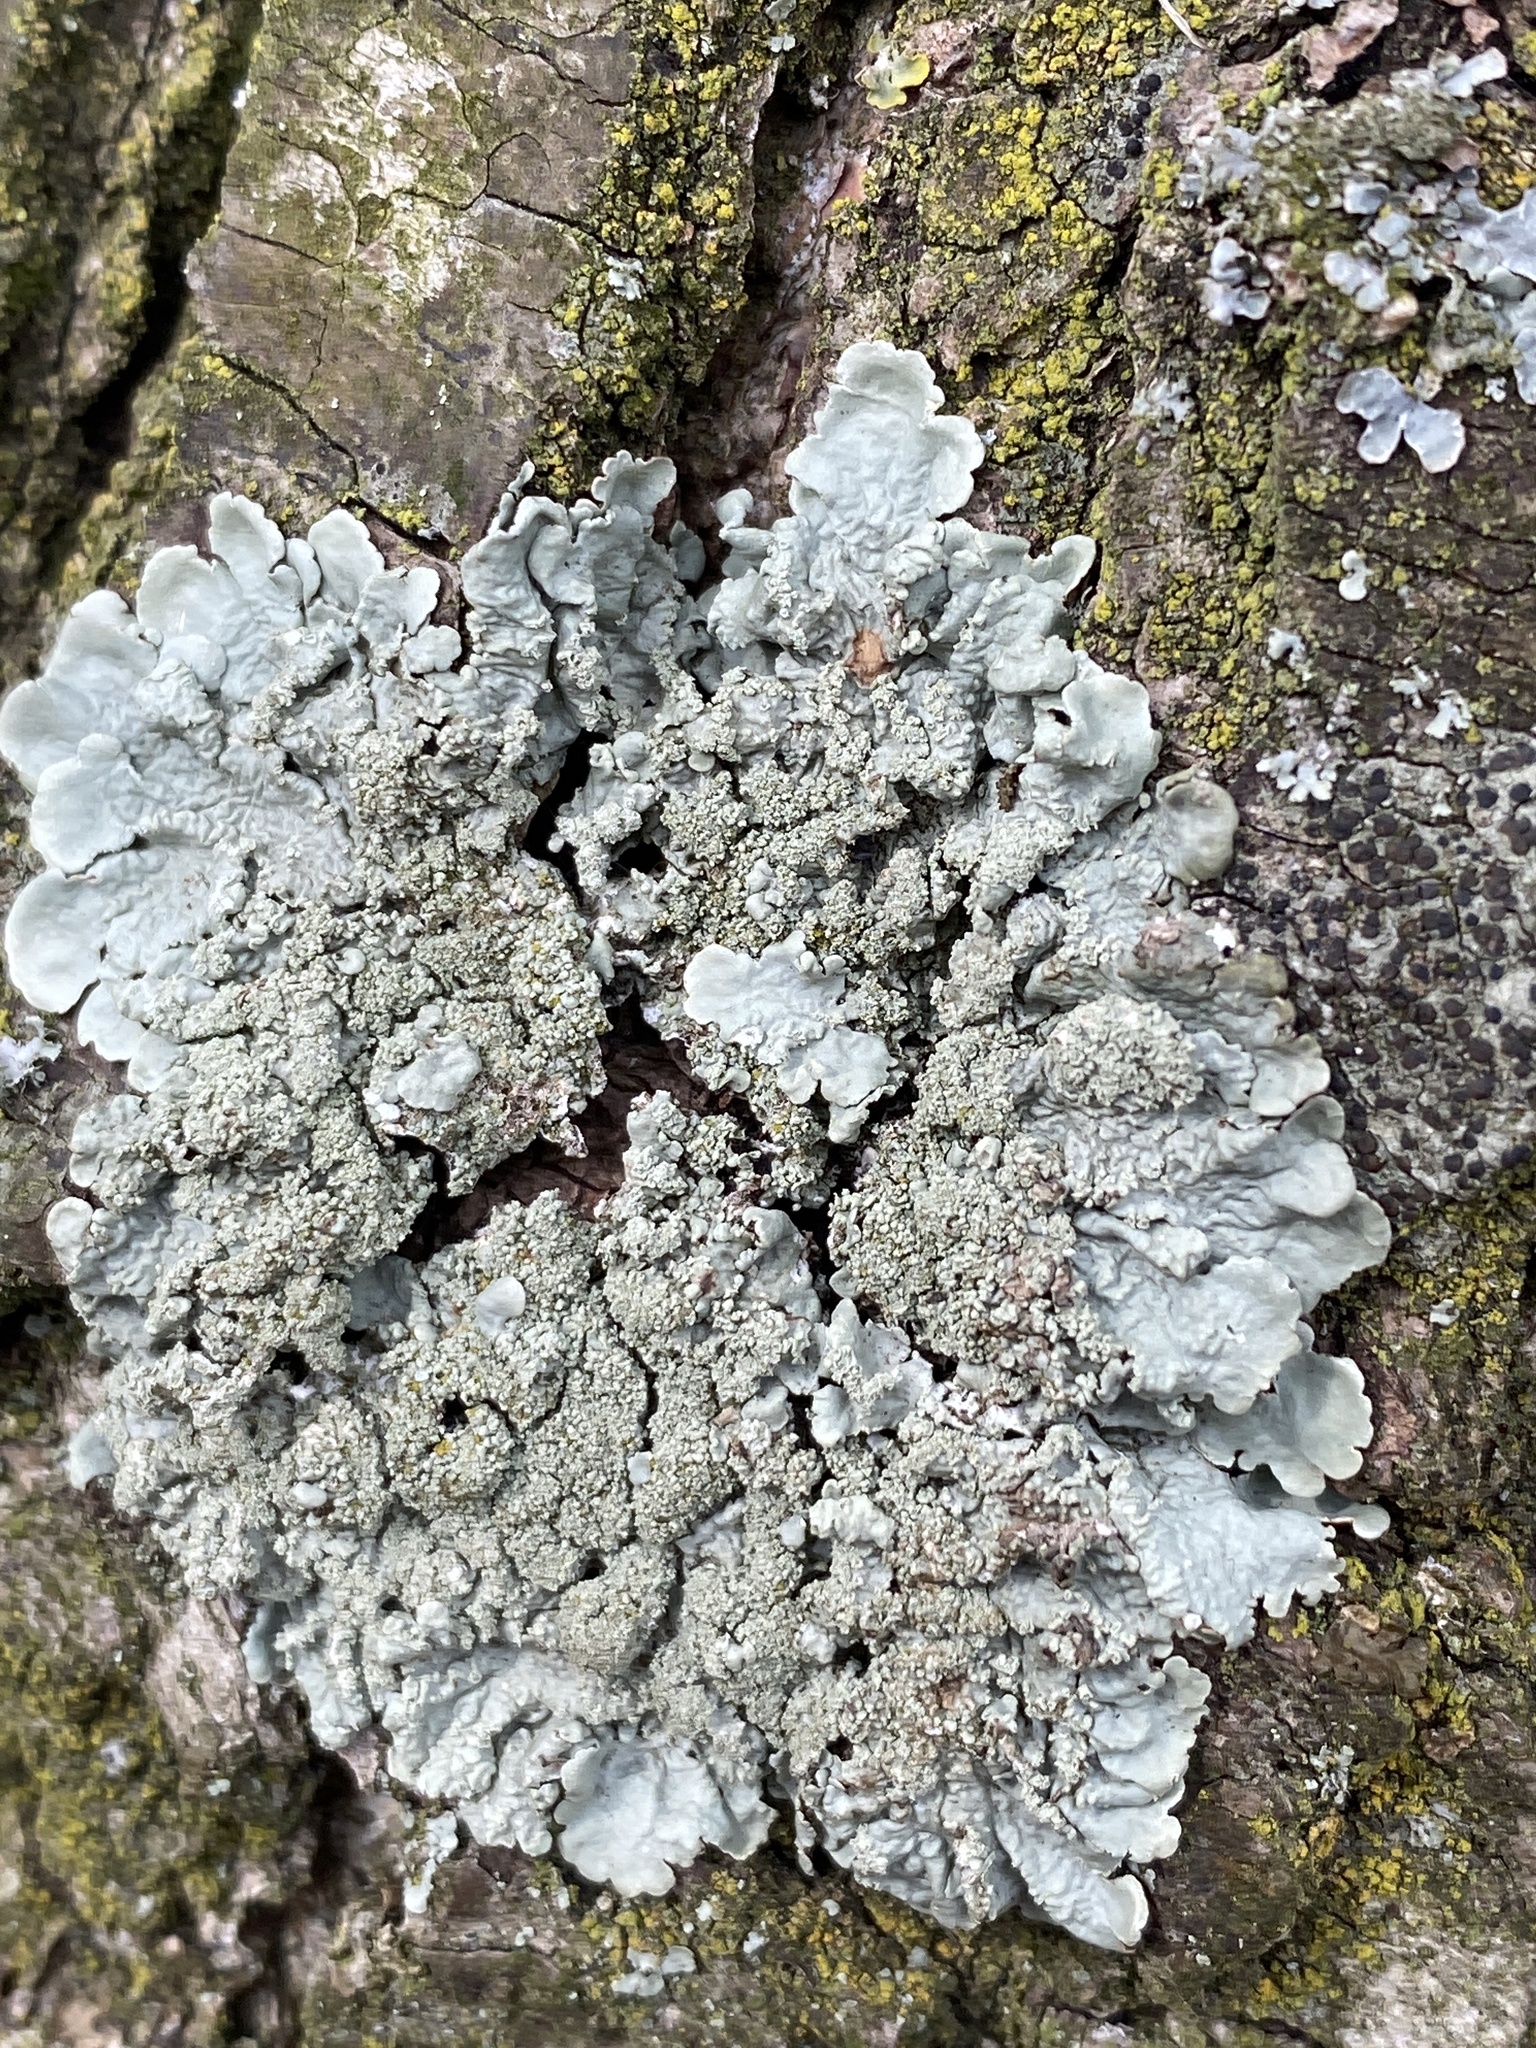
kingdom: Fungi
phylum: Ascomycota
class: Lecanoromycetes
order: Lecanorales
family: Parmeliaceae
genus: Flavoparmelia
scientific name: Flavoparmelia caperata
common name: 40-mile per hour lichen
